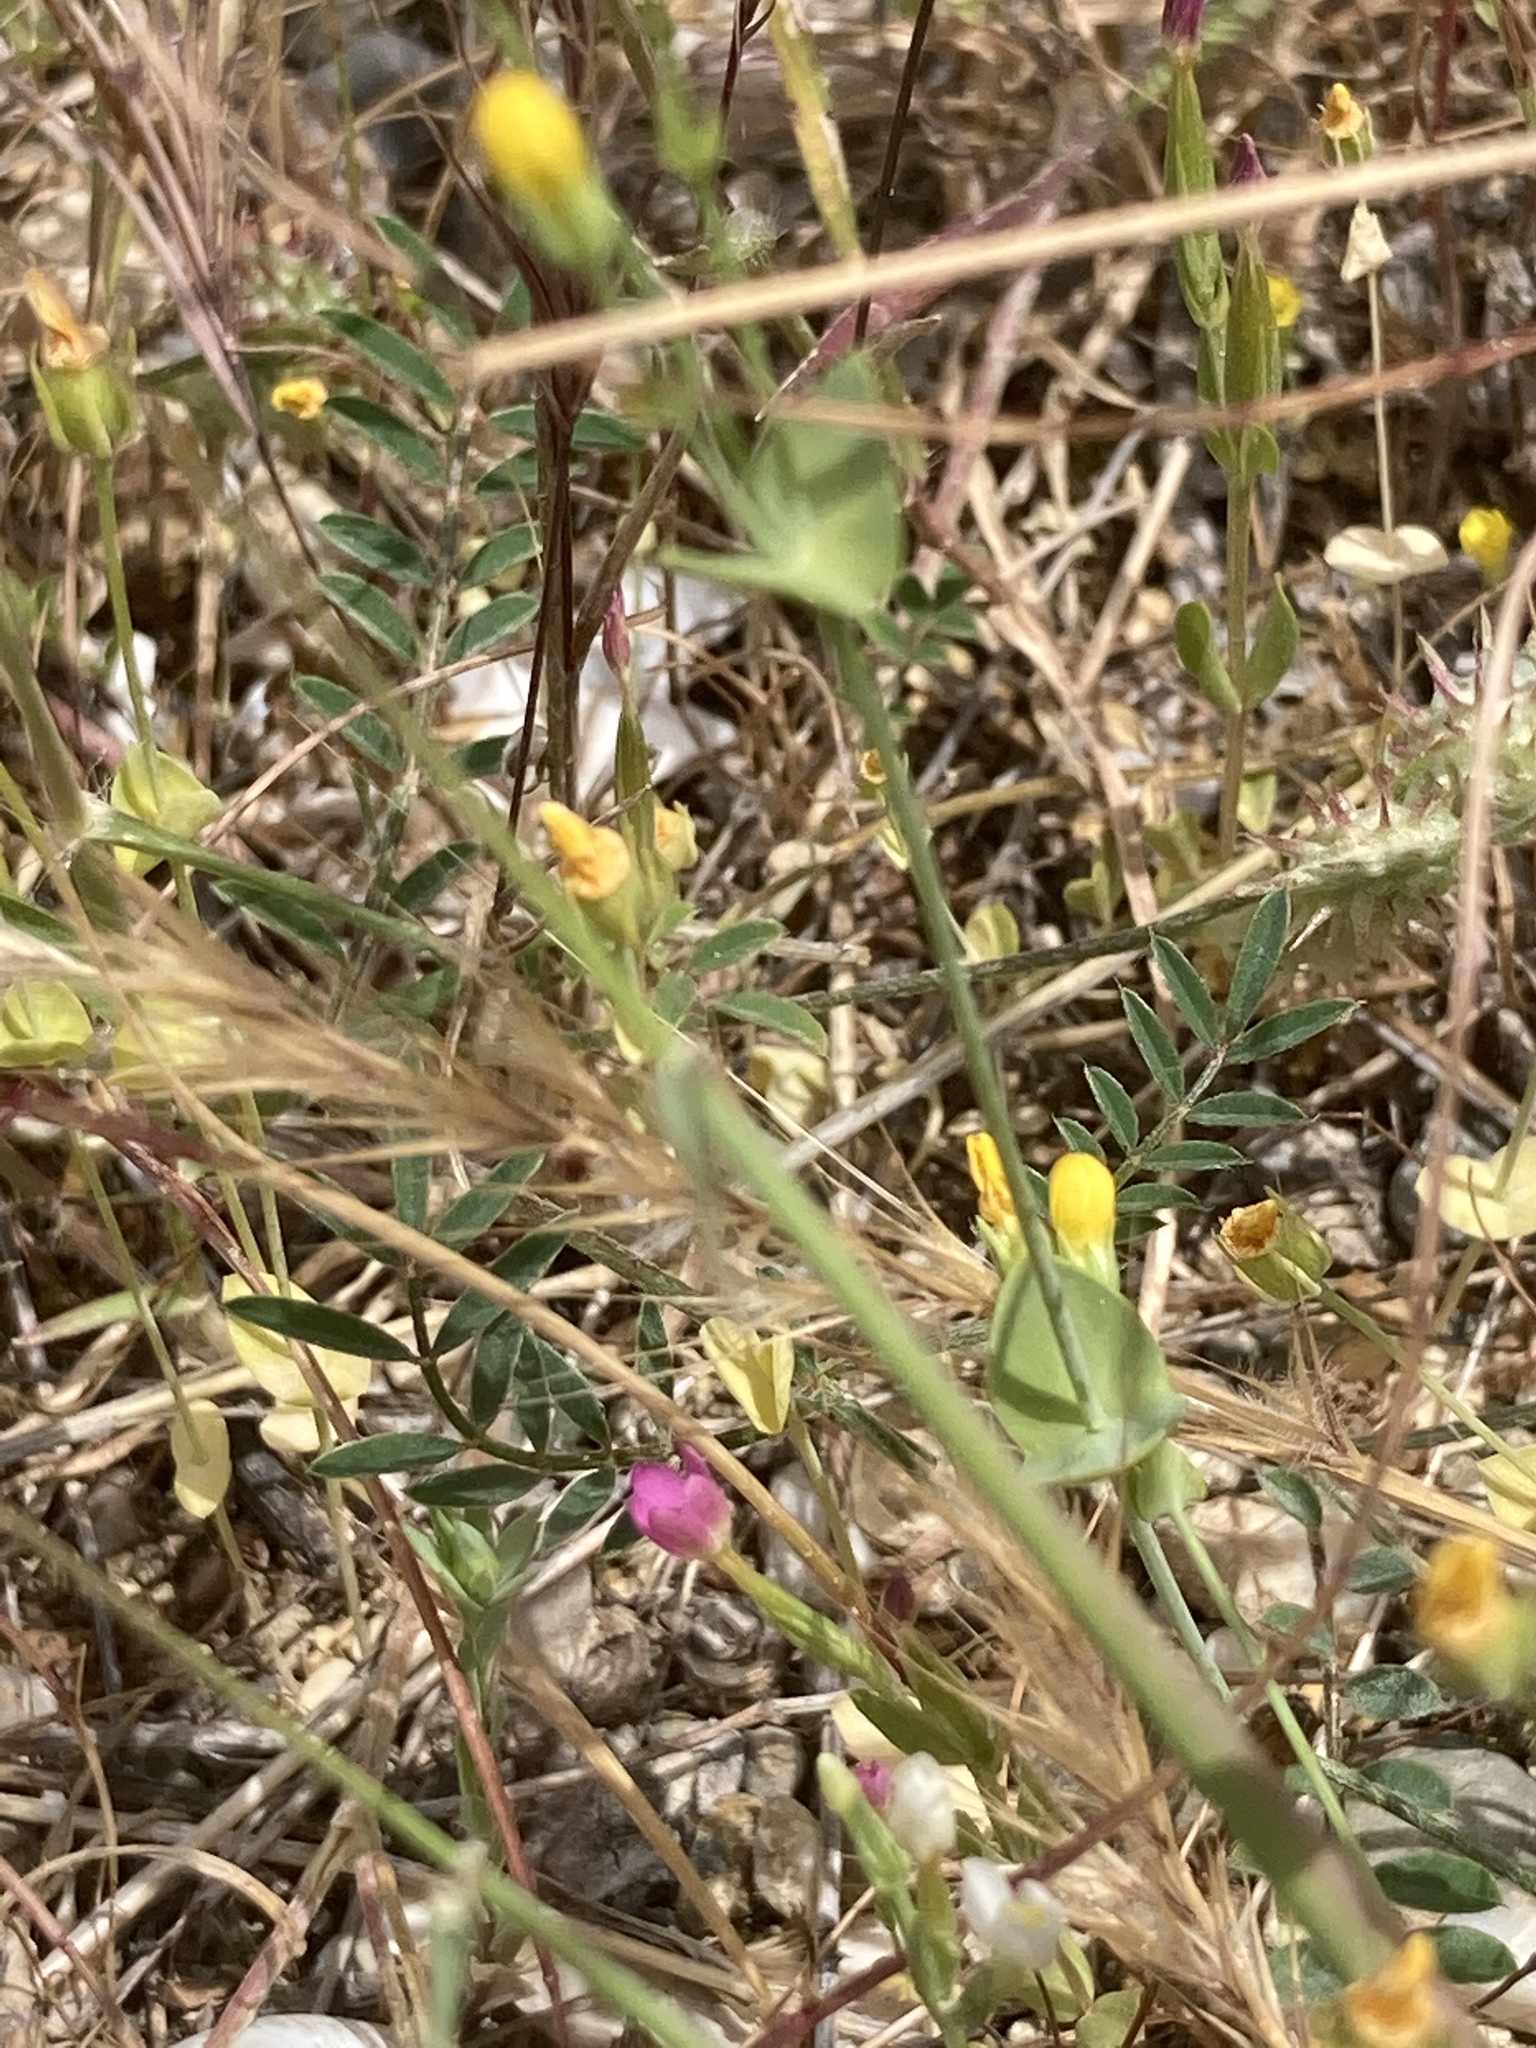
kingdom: Plantae
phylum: Tracheophyta
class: Magnoliopsida
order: Gentianales
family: Gentianaceae
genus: Blackstonia
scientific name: Blackstonia perfoliata
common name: Yellow-wort
